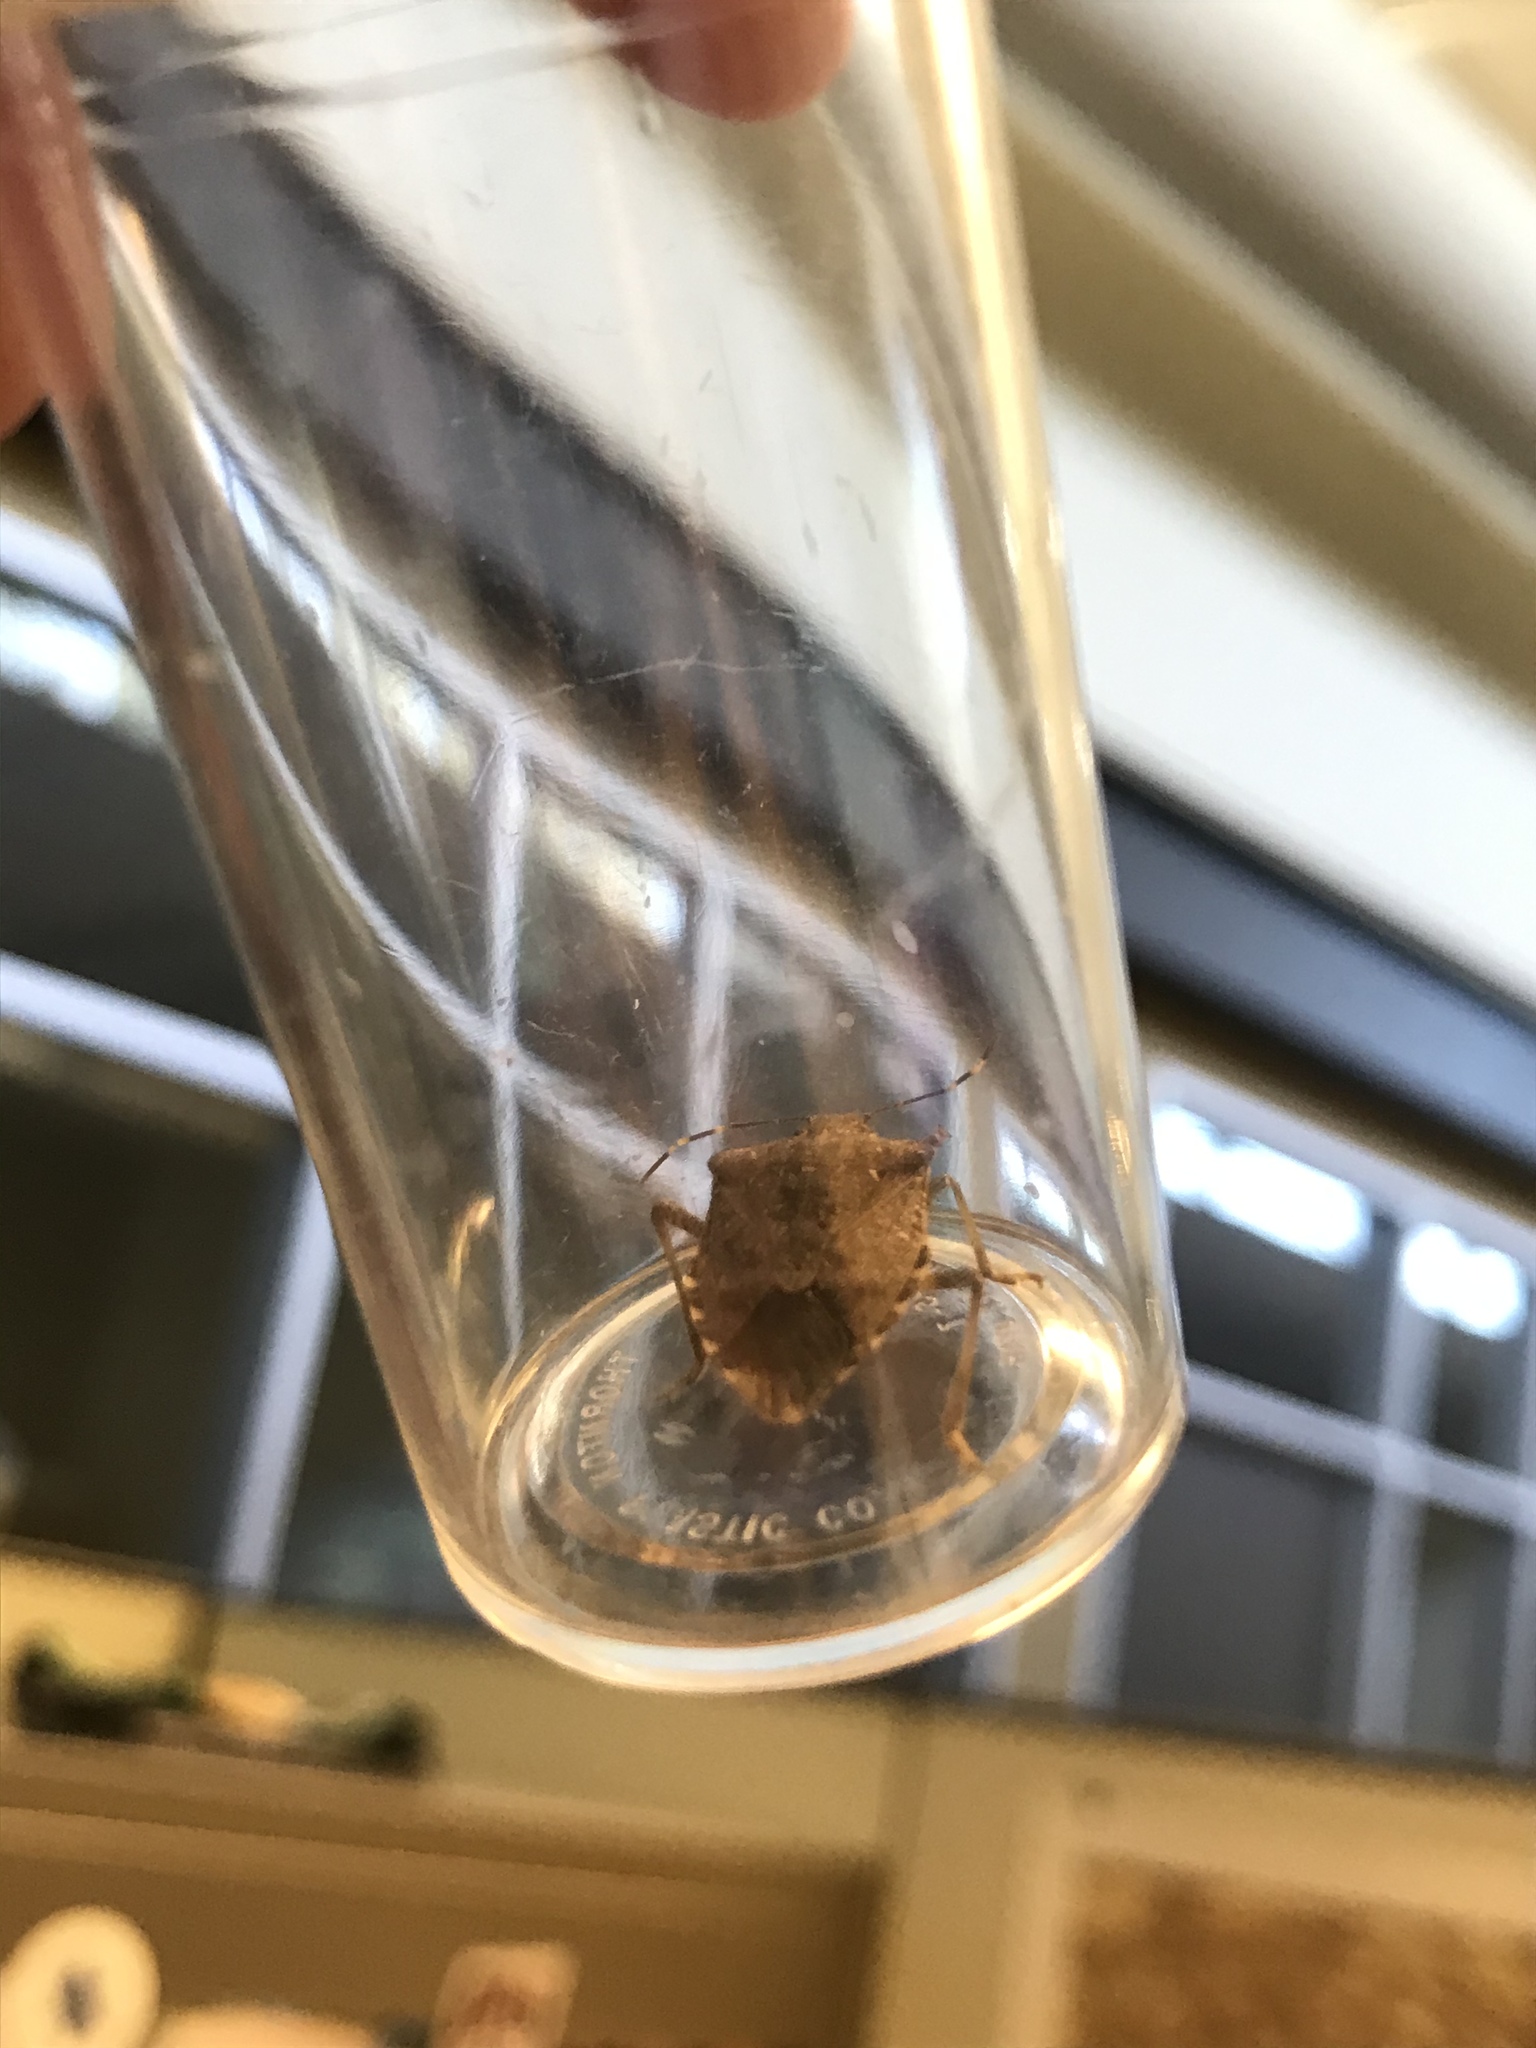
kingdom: Animalia
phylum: Arthropoda
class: Insecta
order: Hemiptera
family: Pentatomidae
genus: Halyomorpha
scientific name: Halyomorpha halys
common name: Brown marmorated stink bug
